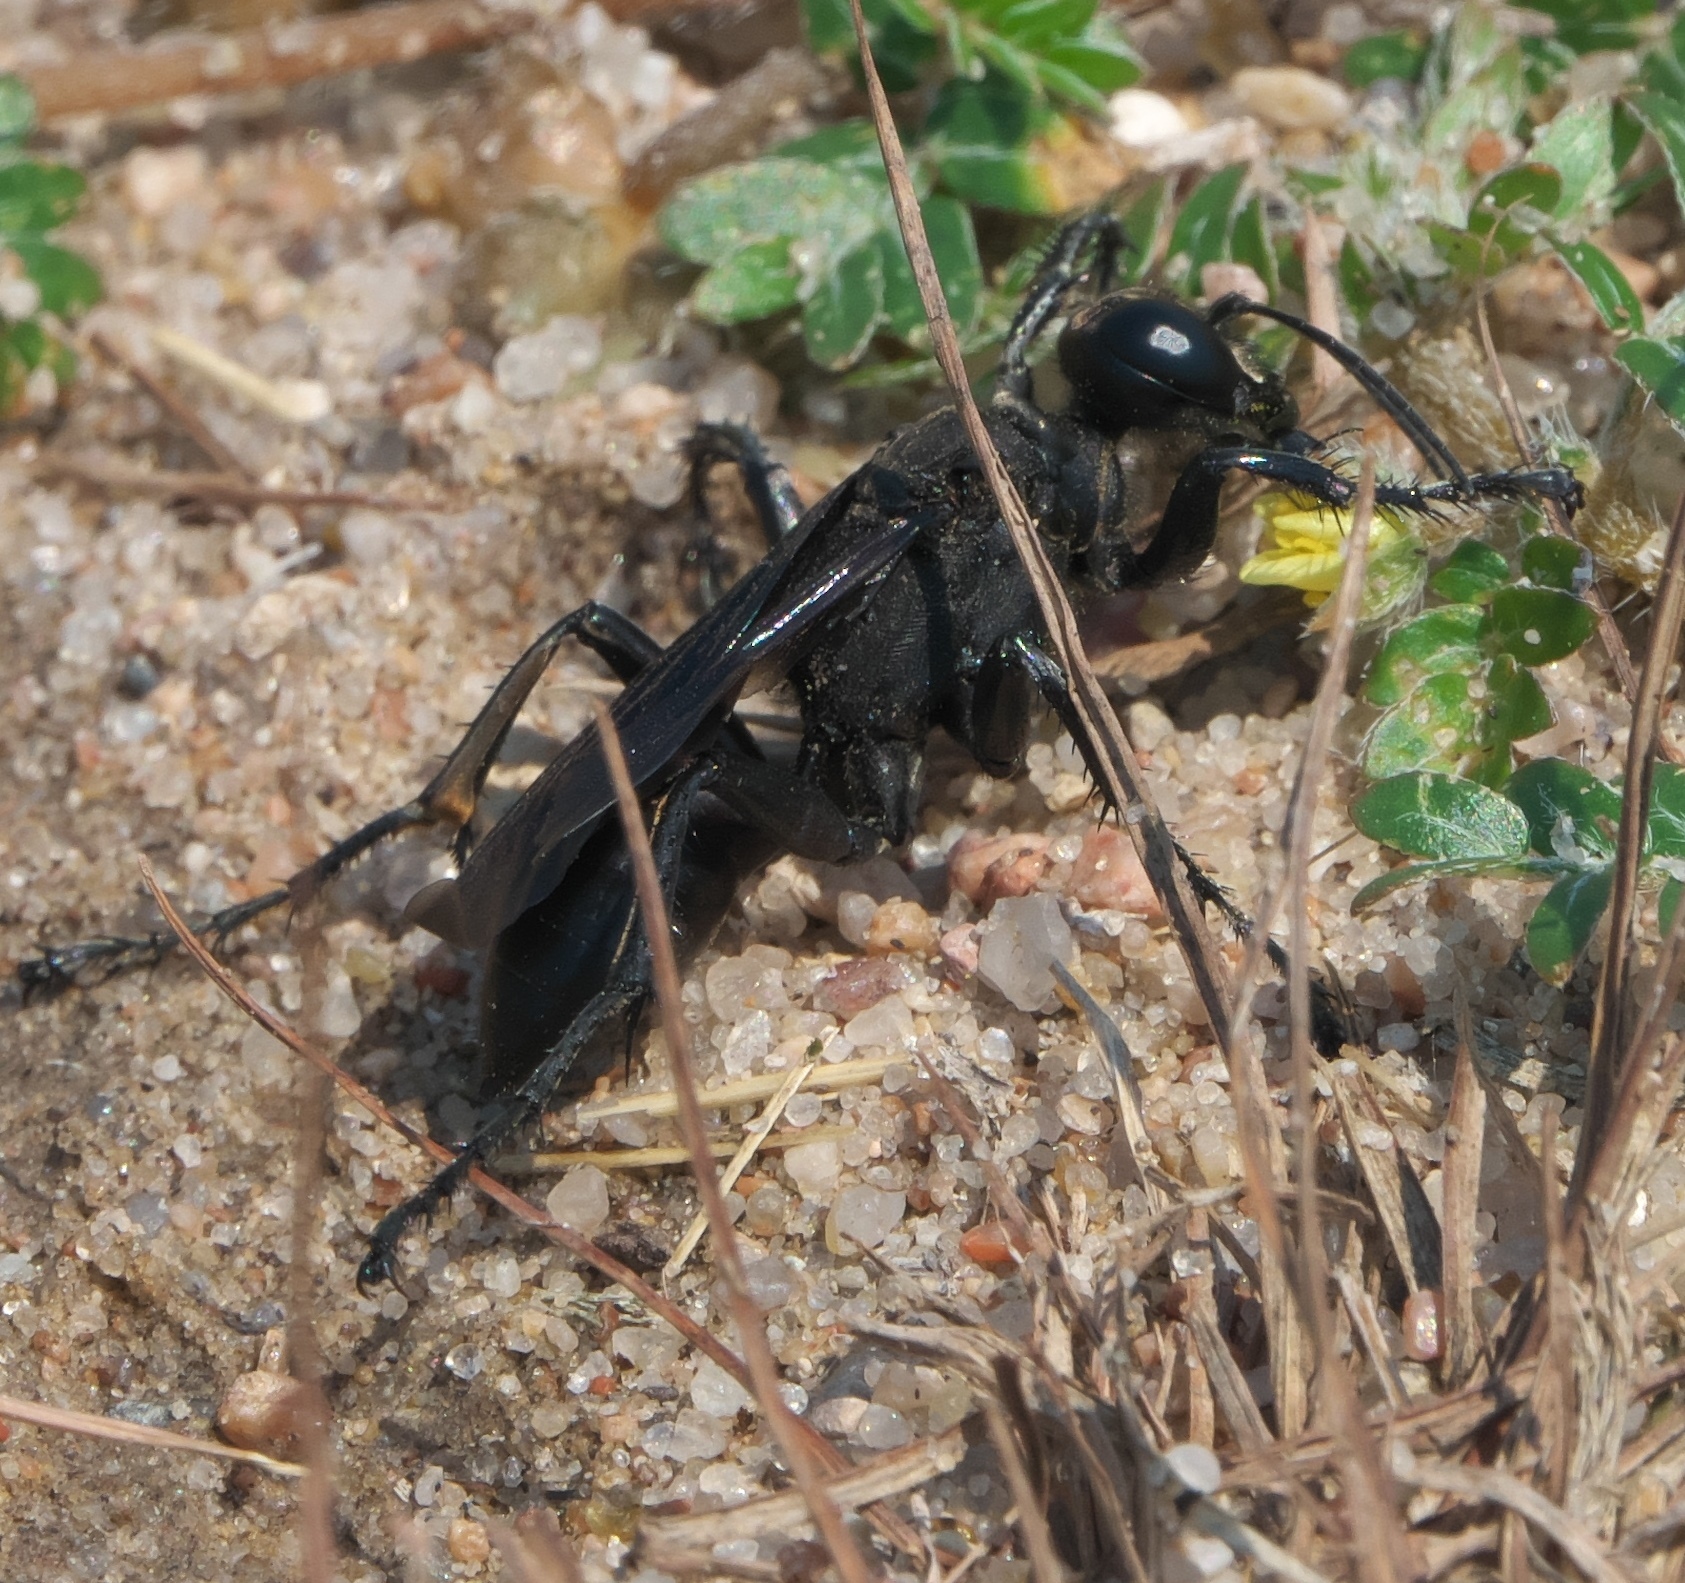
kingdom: Animalia
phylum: Arthropoda
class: Insecta
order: Hymenoptera
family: Sphecidae
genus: Prionyx
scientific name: Prionyx atratus
